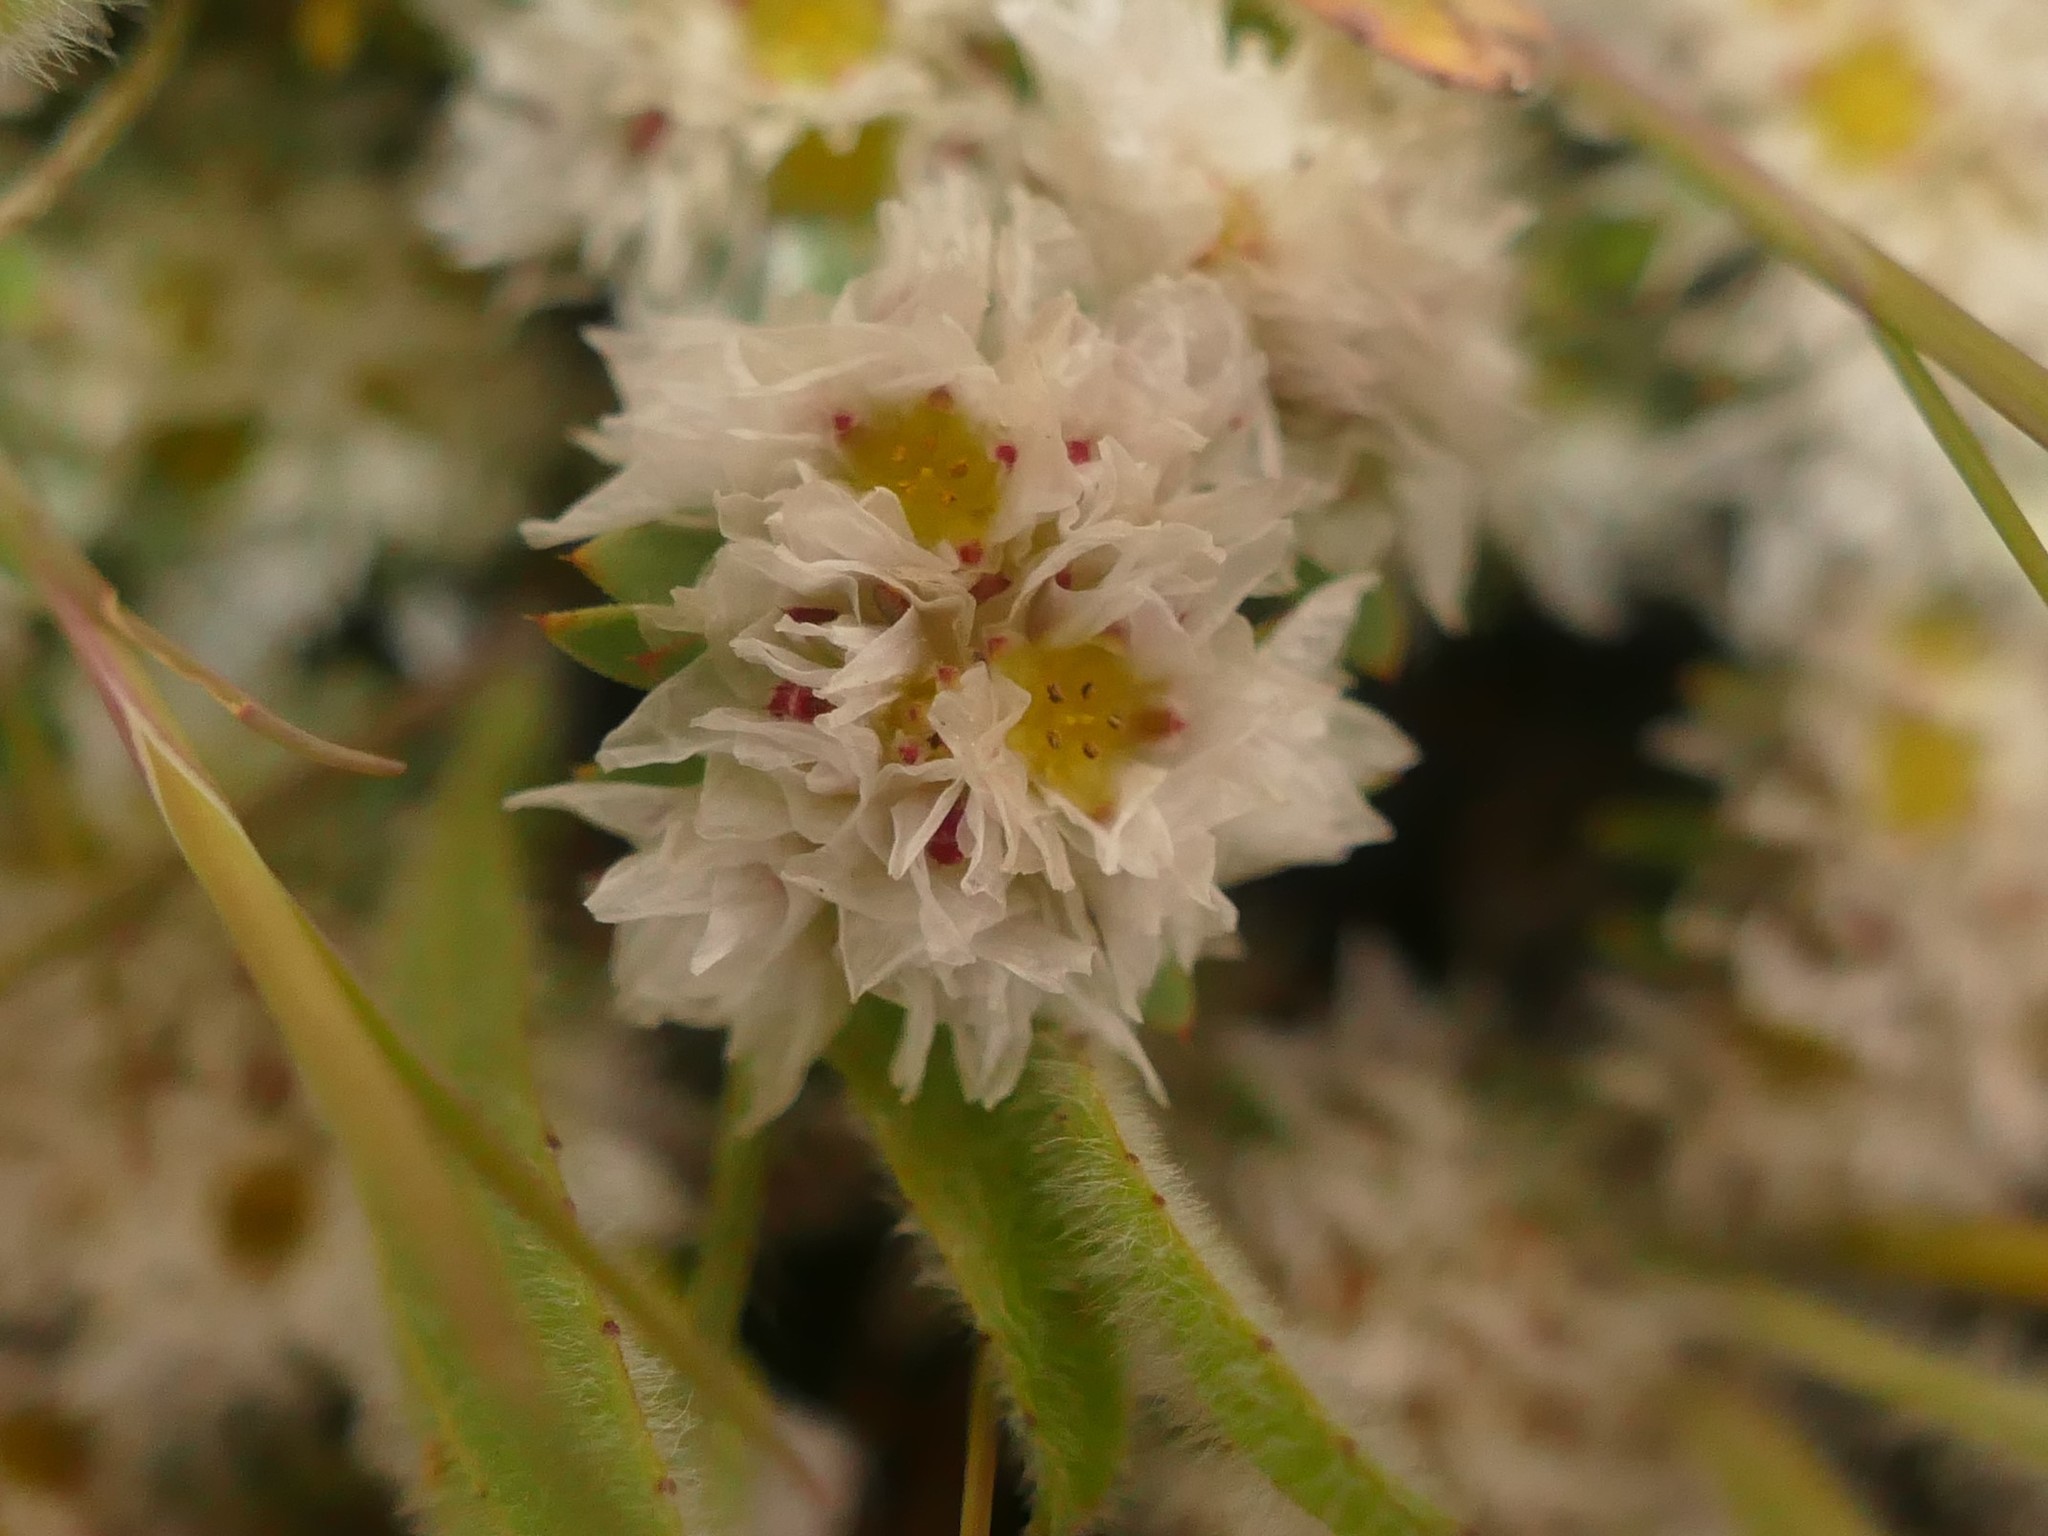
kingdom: Plantae
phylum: Tracheophyta
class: Magnoliopsida
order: Caryophyllales
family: Caryophyllaceae
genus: Paronychia
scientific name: Paronychia argentea
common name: Silver nailroot
